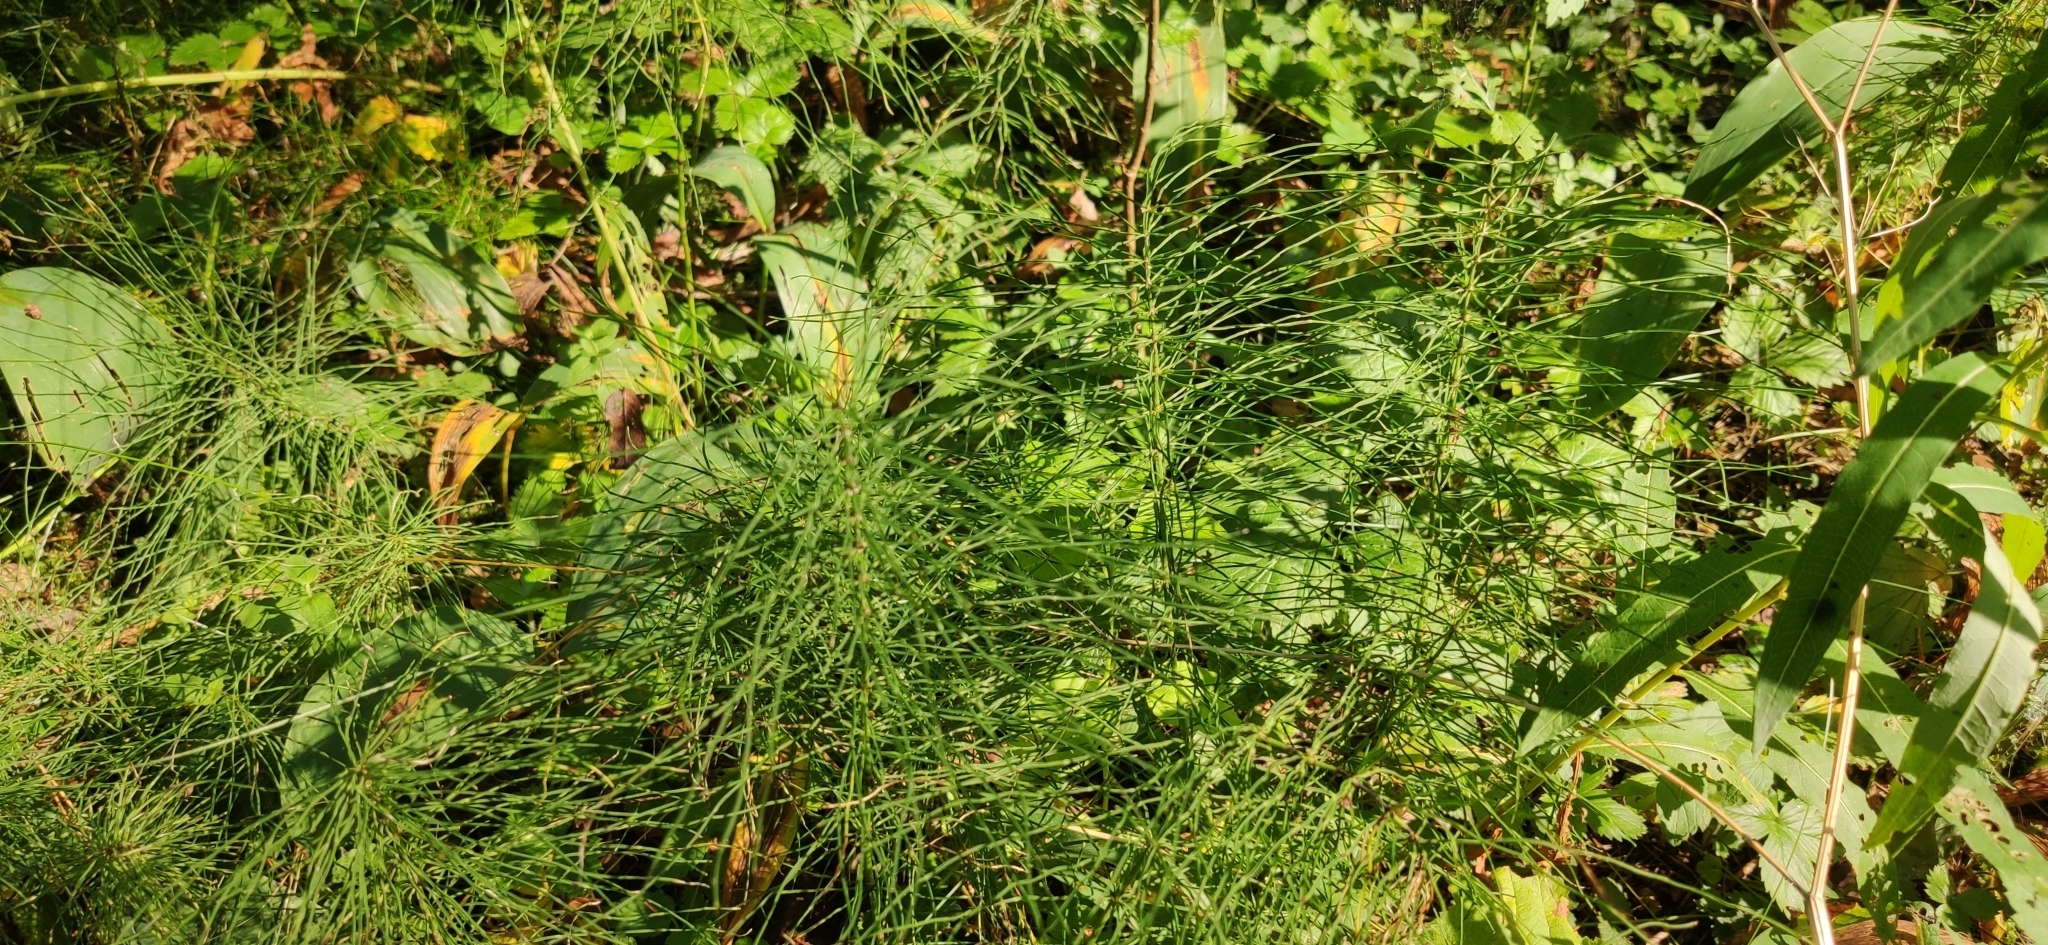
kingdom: Plantae
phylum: Tracheophyta
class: Polypodiopsida
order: Equisetales
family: Equisetaceae
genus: Equisetum
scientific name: Equisetum pratense
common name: Meadow horsetail
